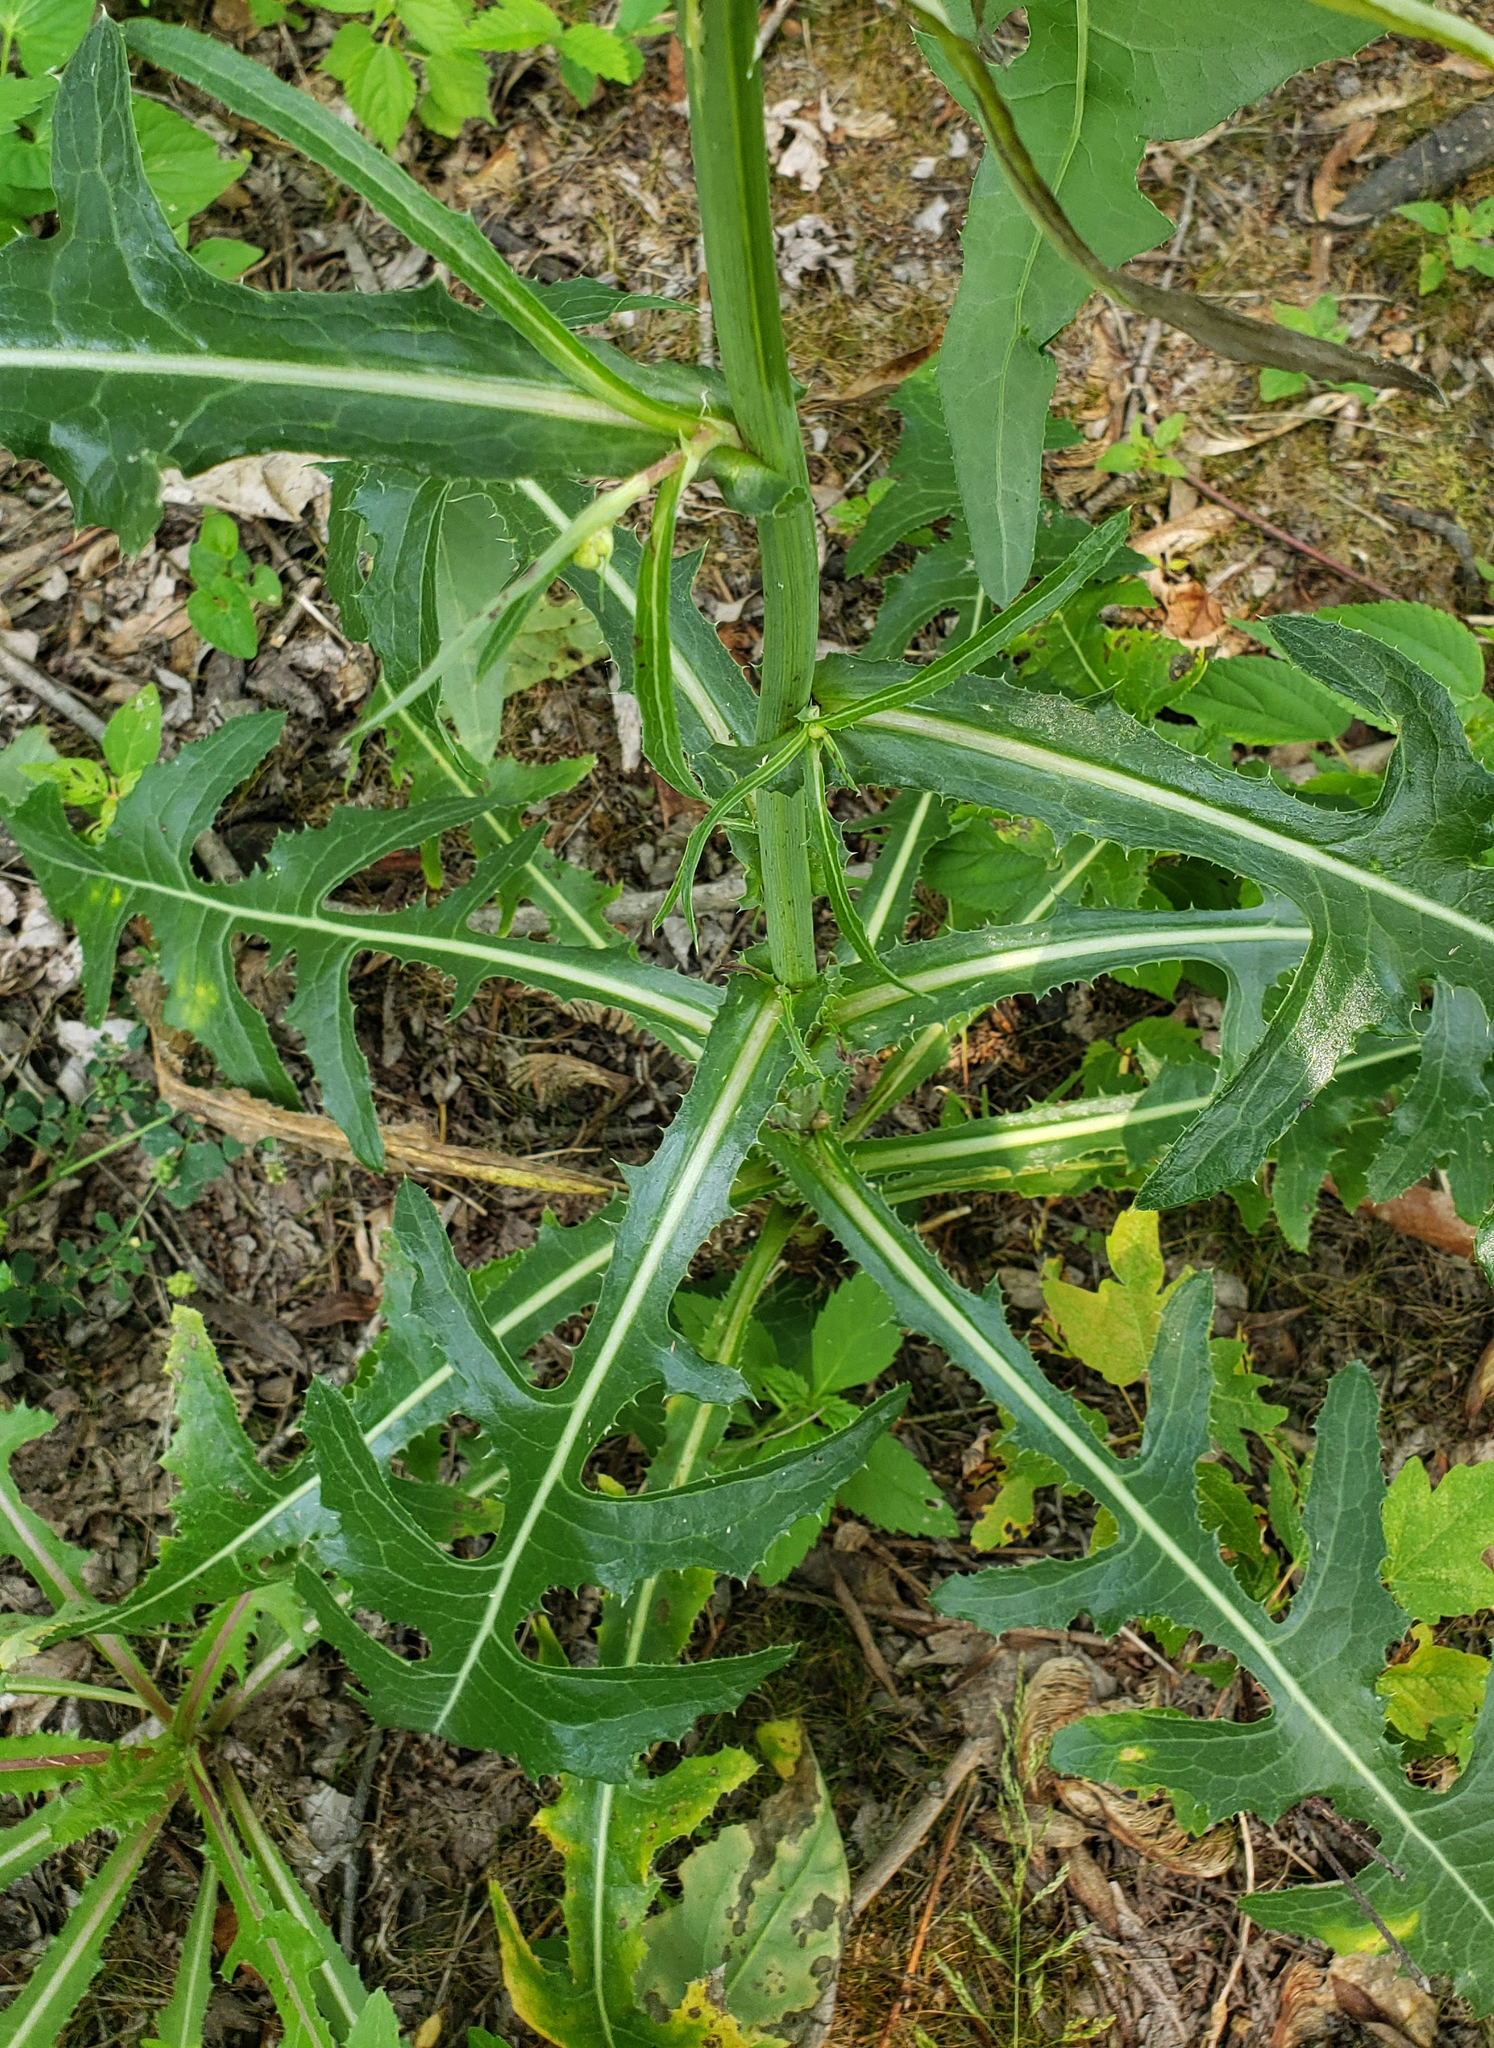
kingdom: Plantae
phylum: Tracheophyta
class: Magnoliopsida
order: Asterales
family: Asteraceae
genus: Sonchus
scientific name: Sonchus arvensis
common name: Perennial sow-thistle
